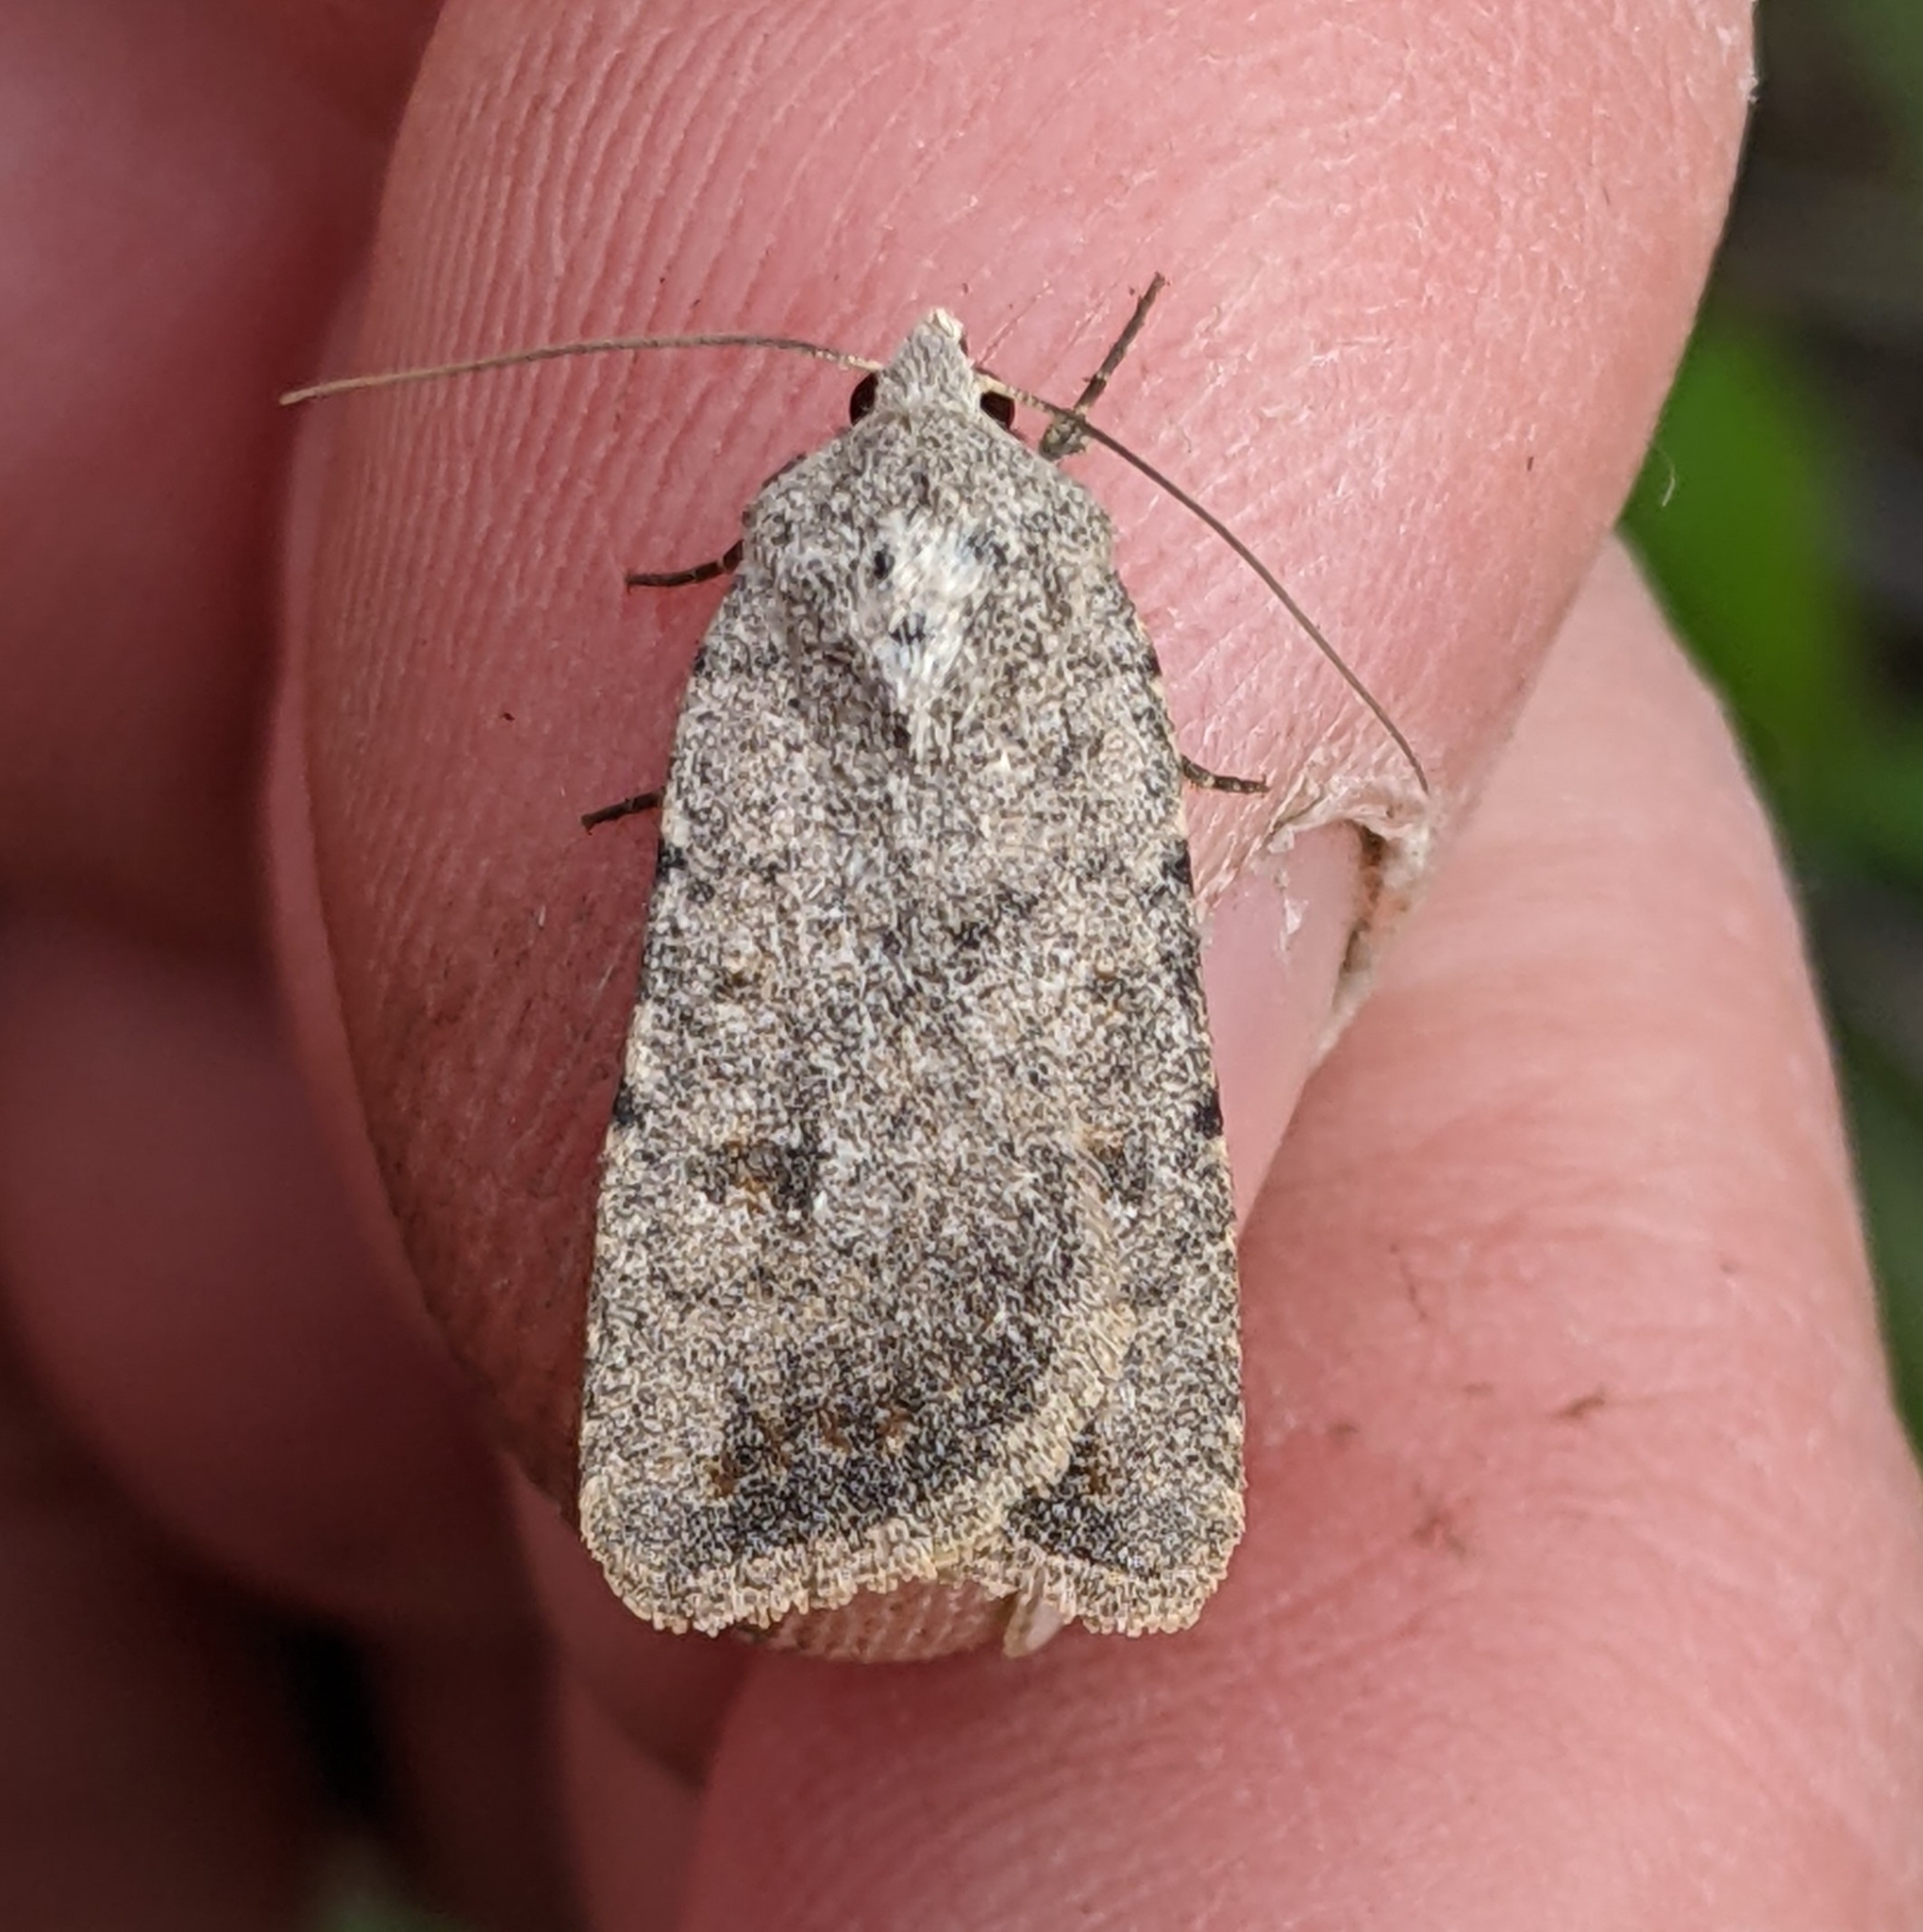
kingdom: Animalia
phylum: Arthropoda
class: Insecta
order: Lepidoptera
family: Noctuidae
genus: Caradrina
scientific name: Caradrina montana
